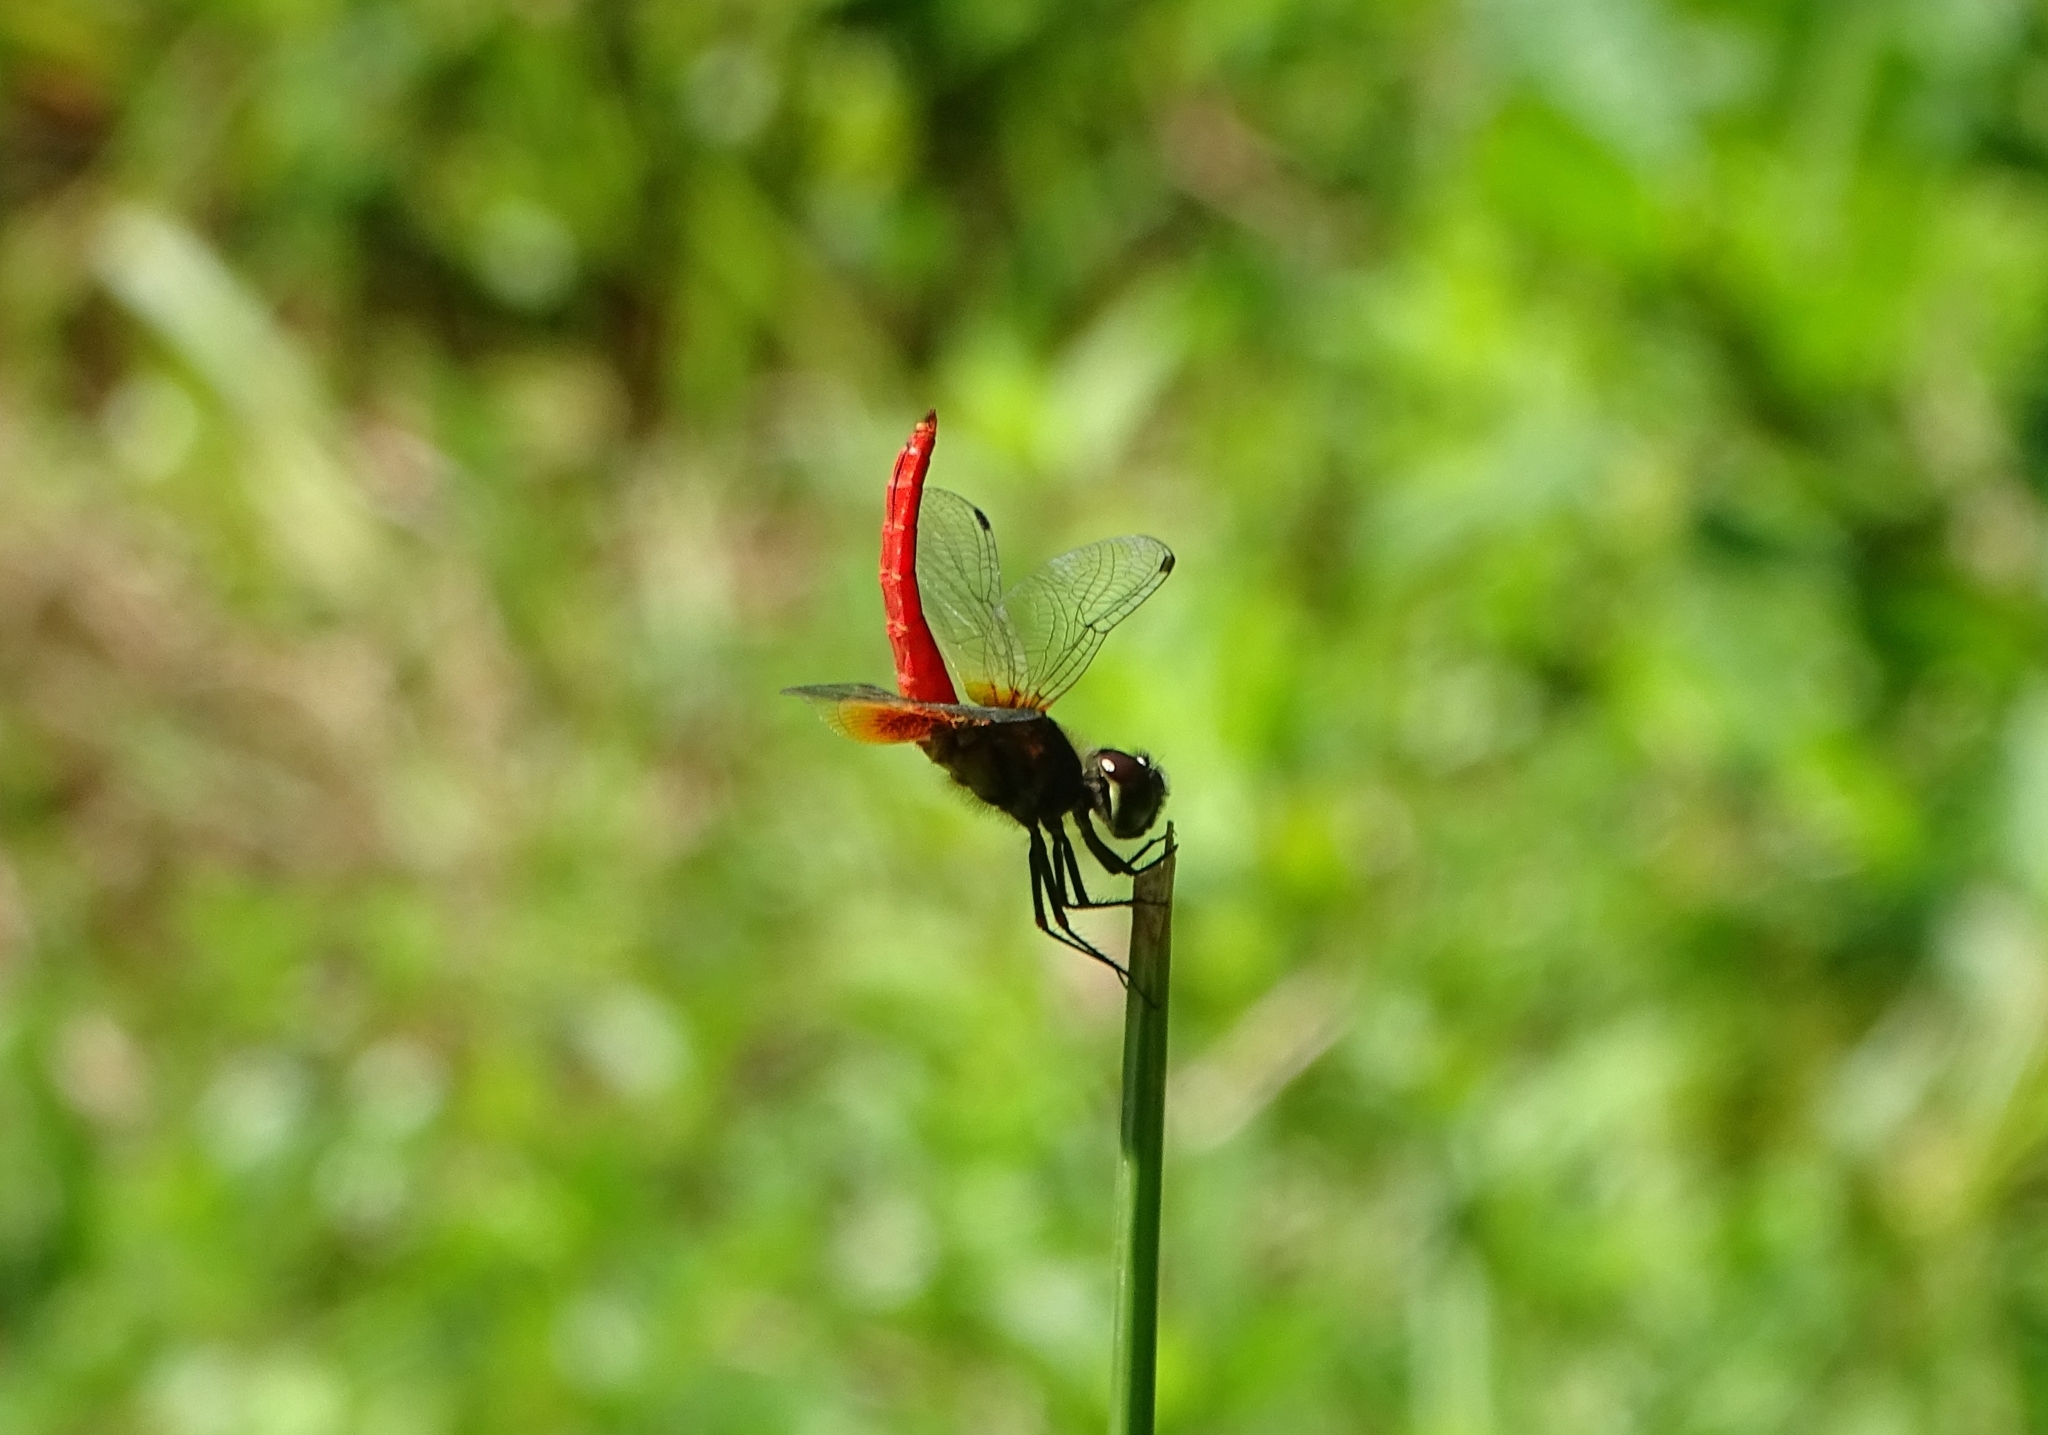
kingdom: Animalia
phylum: Arthropoda
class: Insecta
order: Odonata
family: Libellulidae
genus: Aethriamanta
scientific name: Aethriamanta brevipennis
